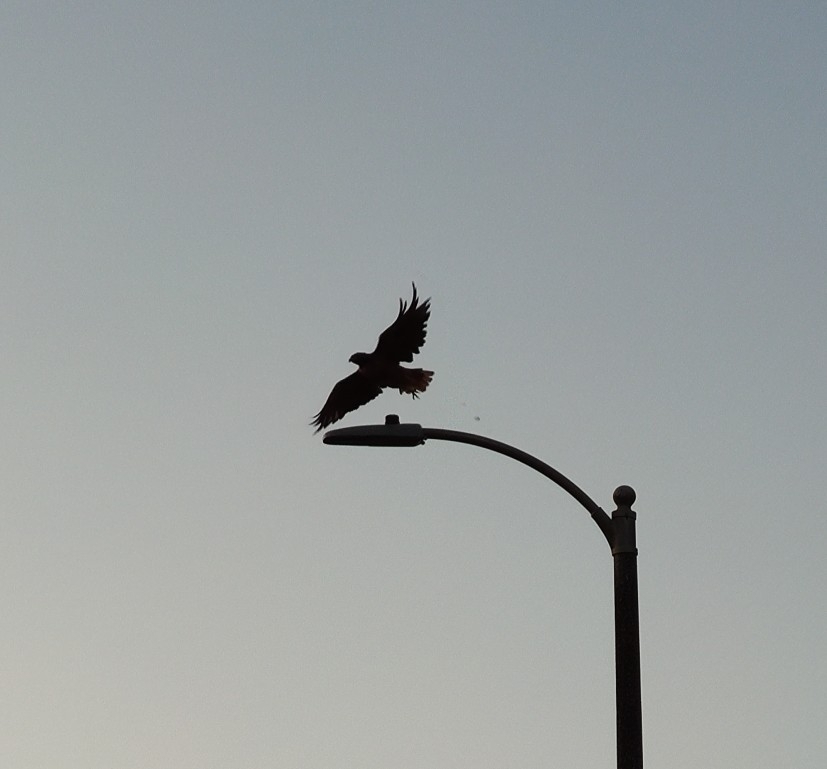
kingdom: Animalia
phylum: Chordata
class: Aves
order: Accipitriformes
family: Accipitridae
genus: Buteo
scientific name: Buteo jamaicensis
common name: Red-tailed hawk
